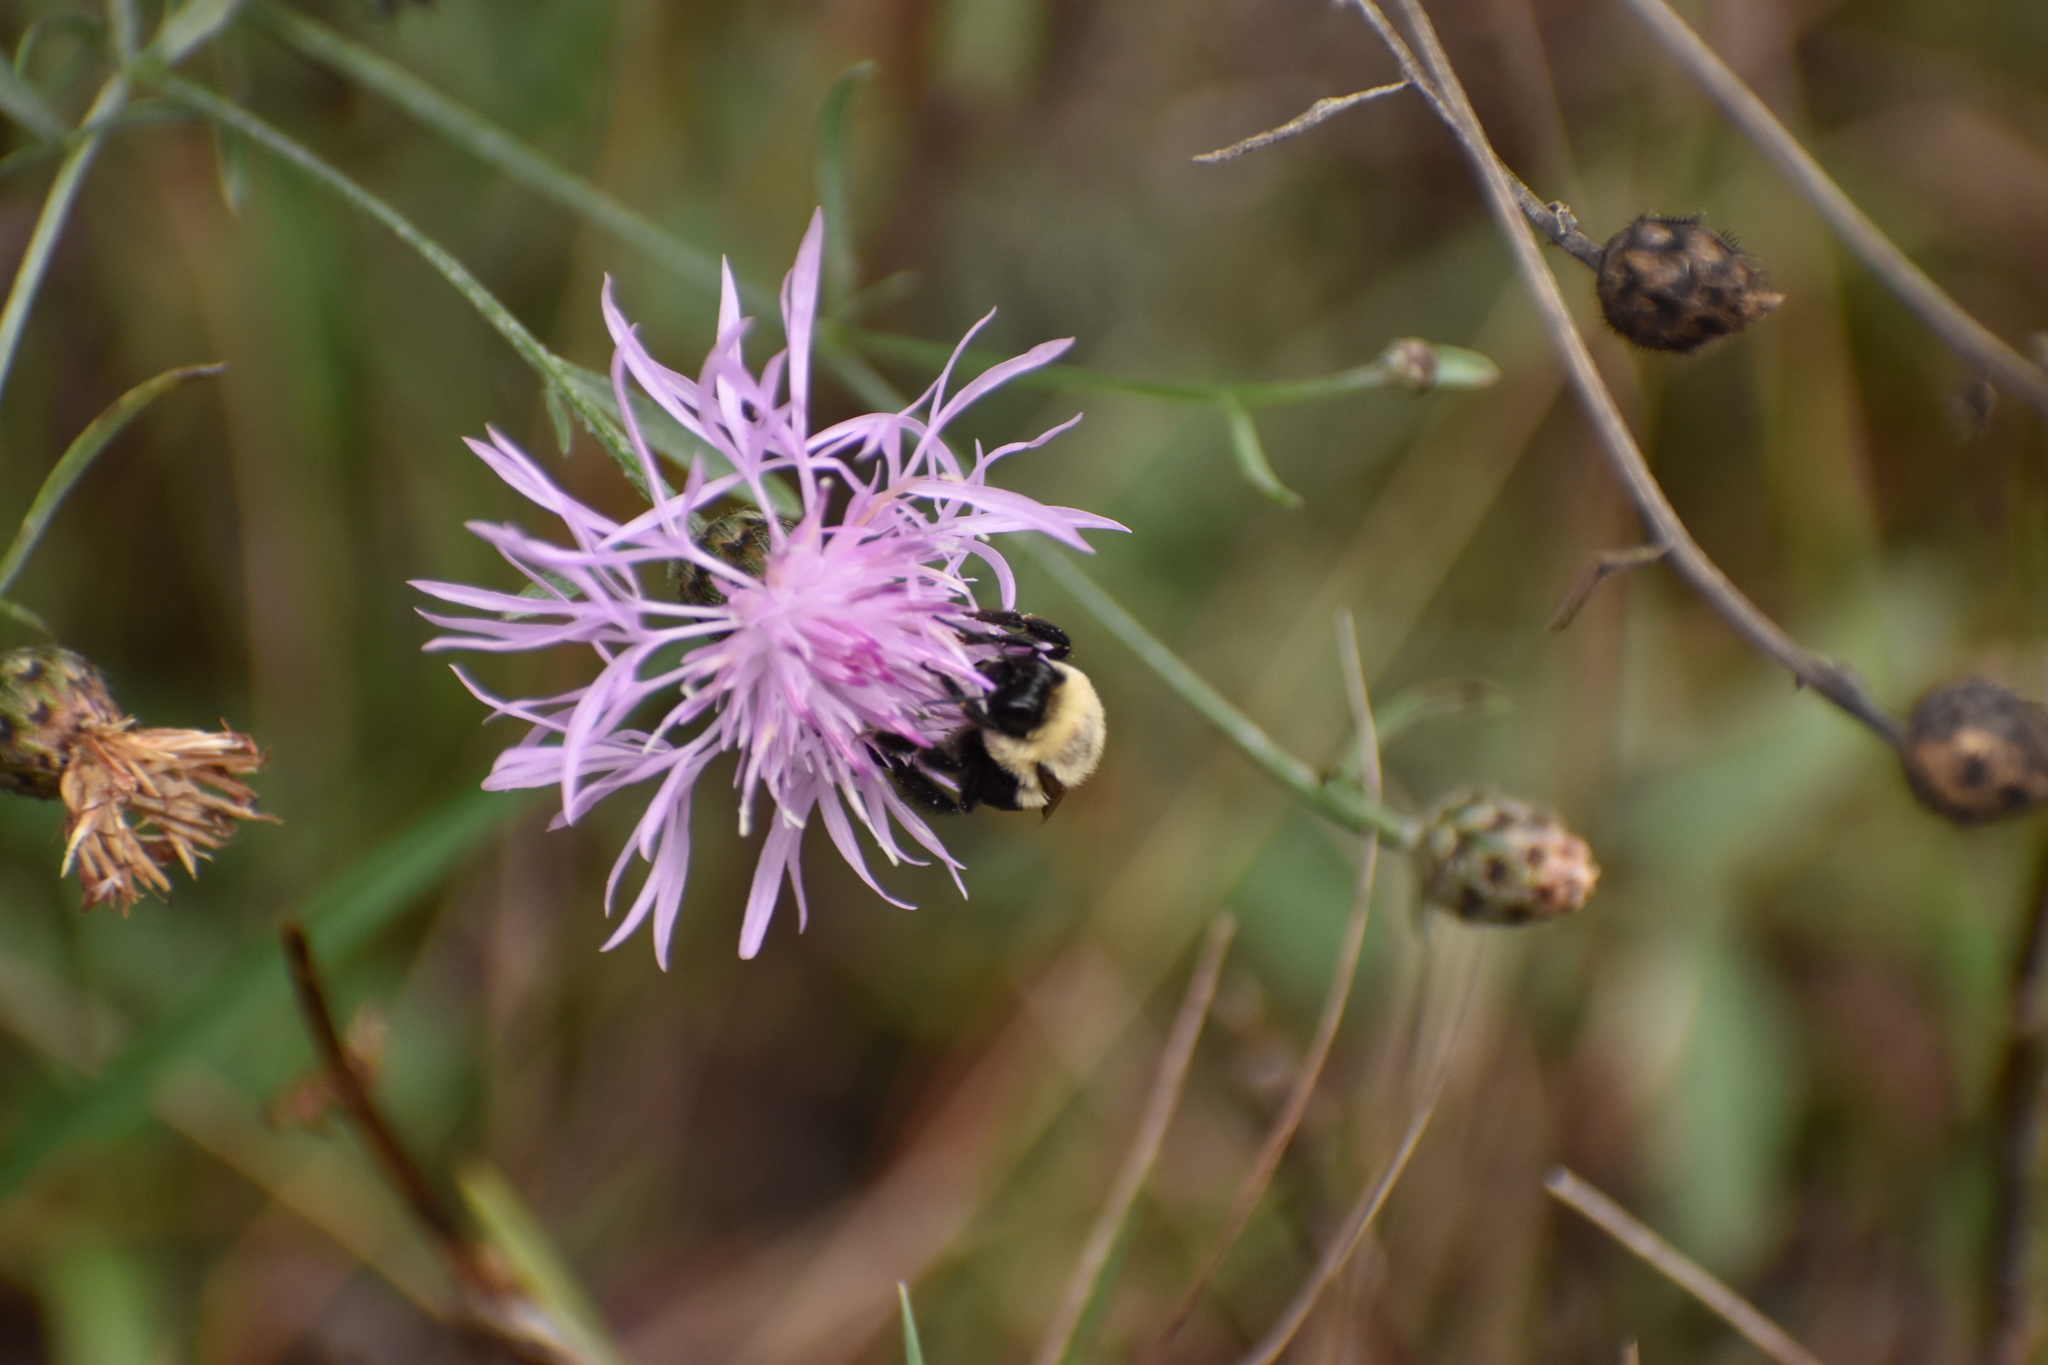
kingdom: Animalia
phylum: Arthropoda
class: Insecta
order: Hymenoptera
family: Apidae
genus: Bombus
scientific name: Bombus impatiens
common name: Common eastern bumble bee
